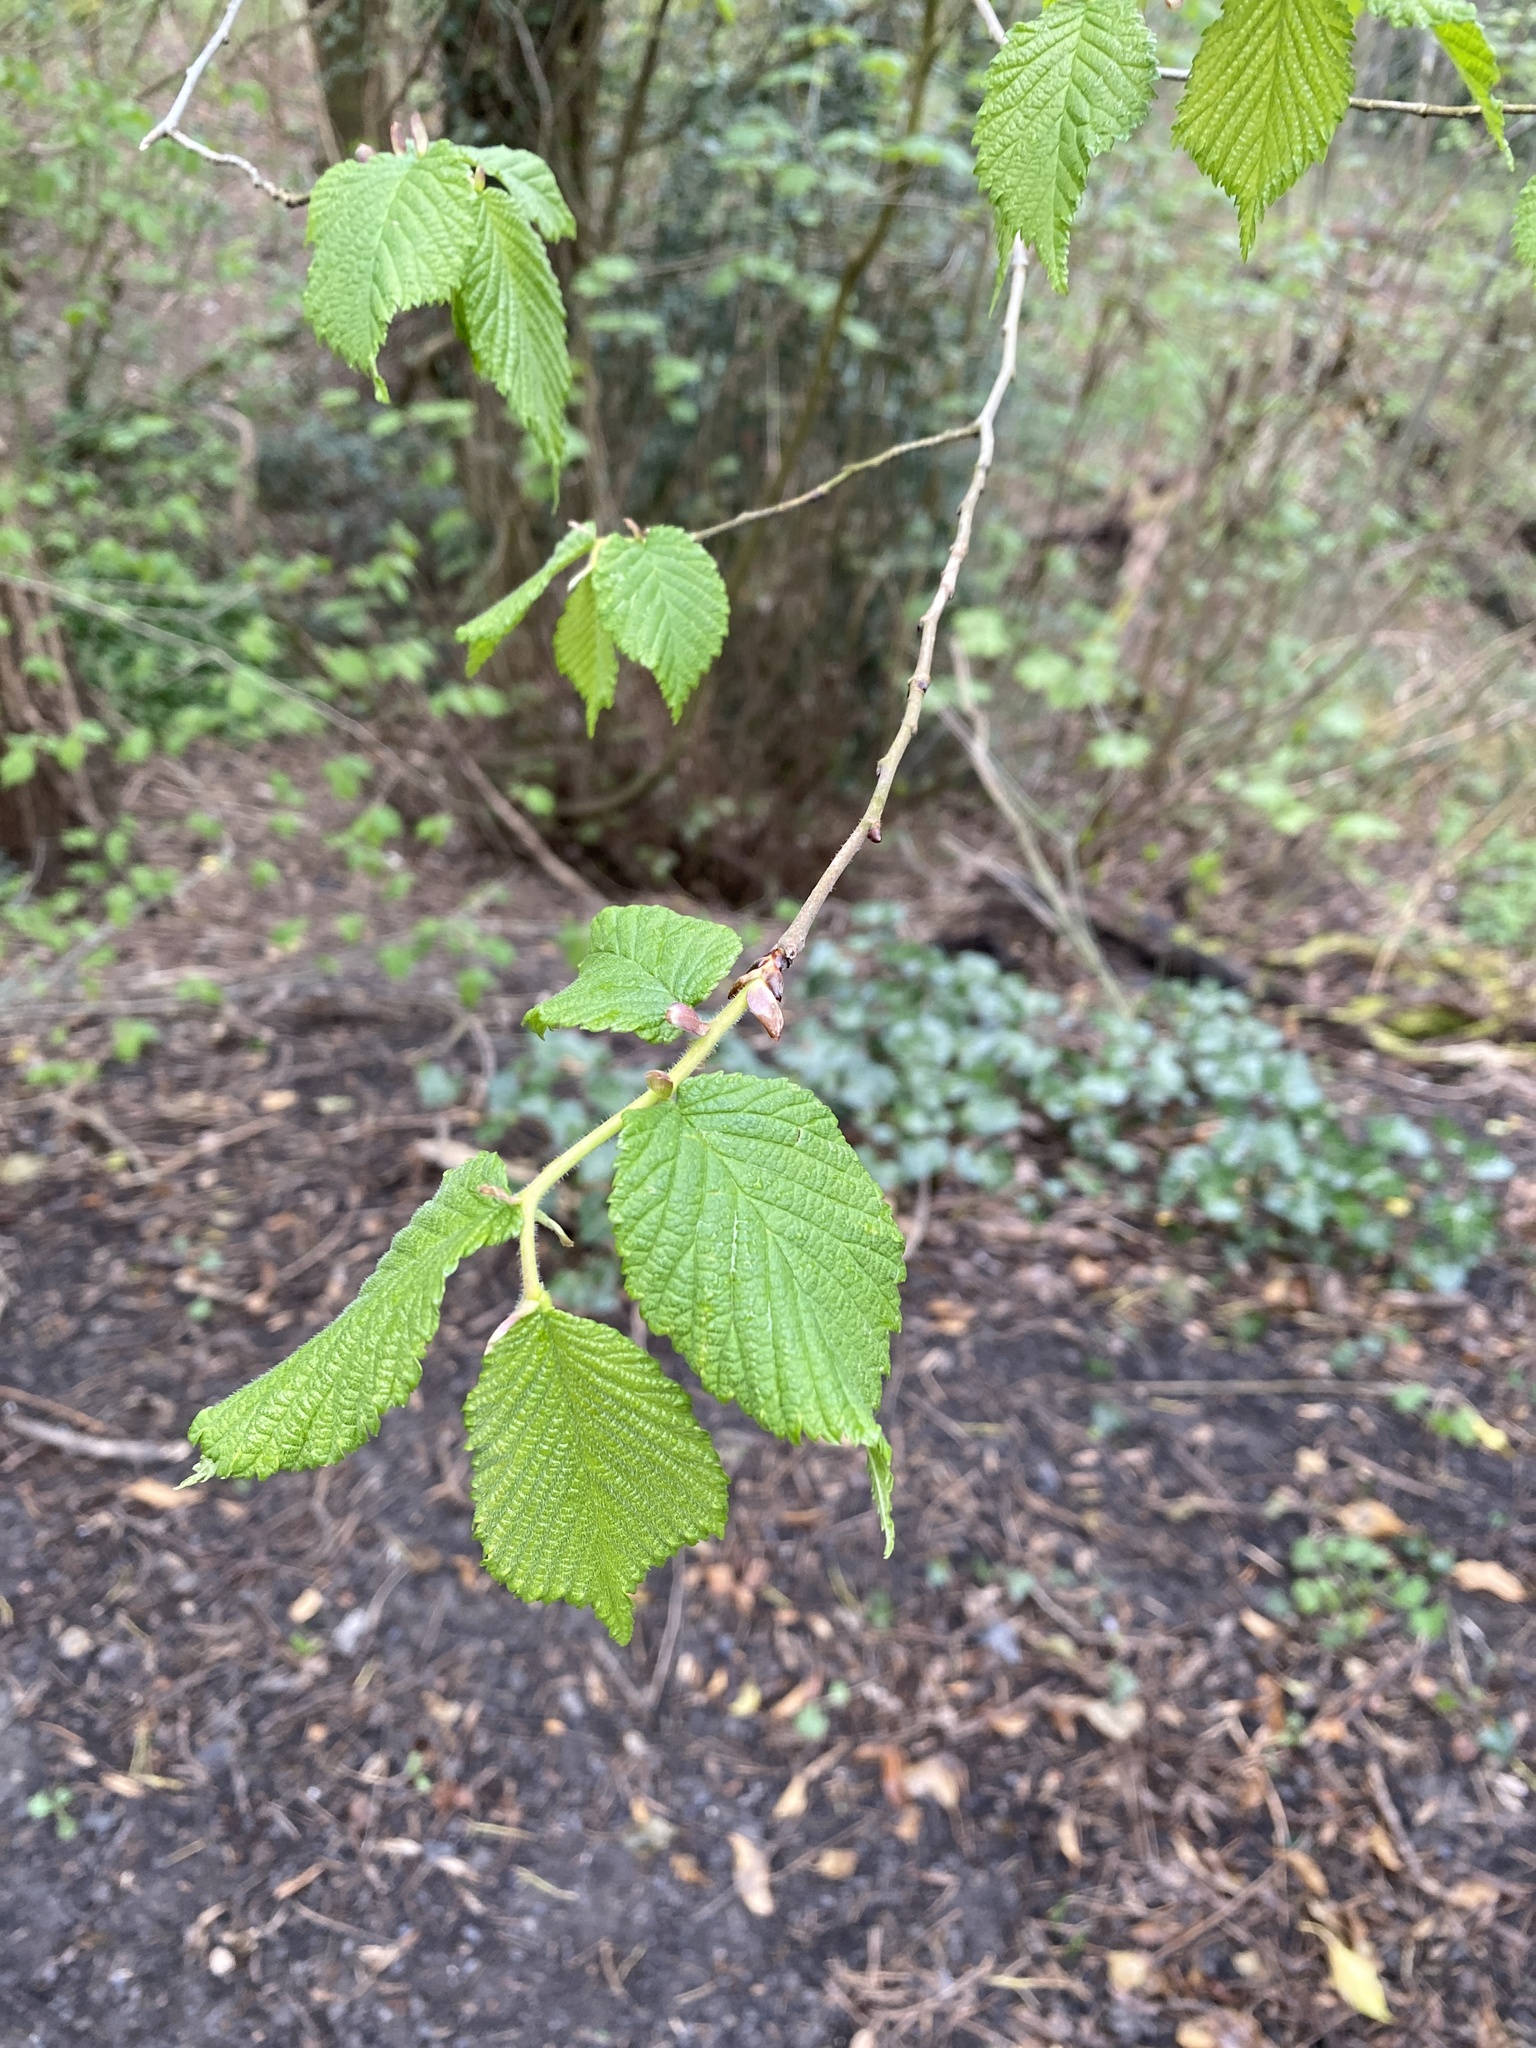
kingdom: Plantae
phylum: Tracheophyta
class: Magnoliopsida
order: Rosales
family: Ulmaceae
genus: Ulmus
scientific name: Ulmus glabra
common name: Wych elm
